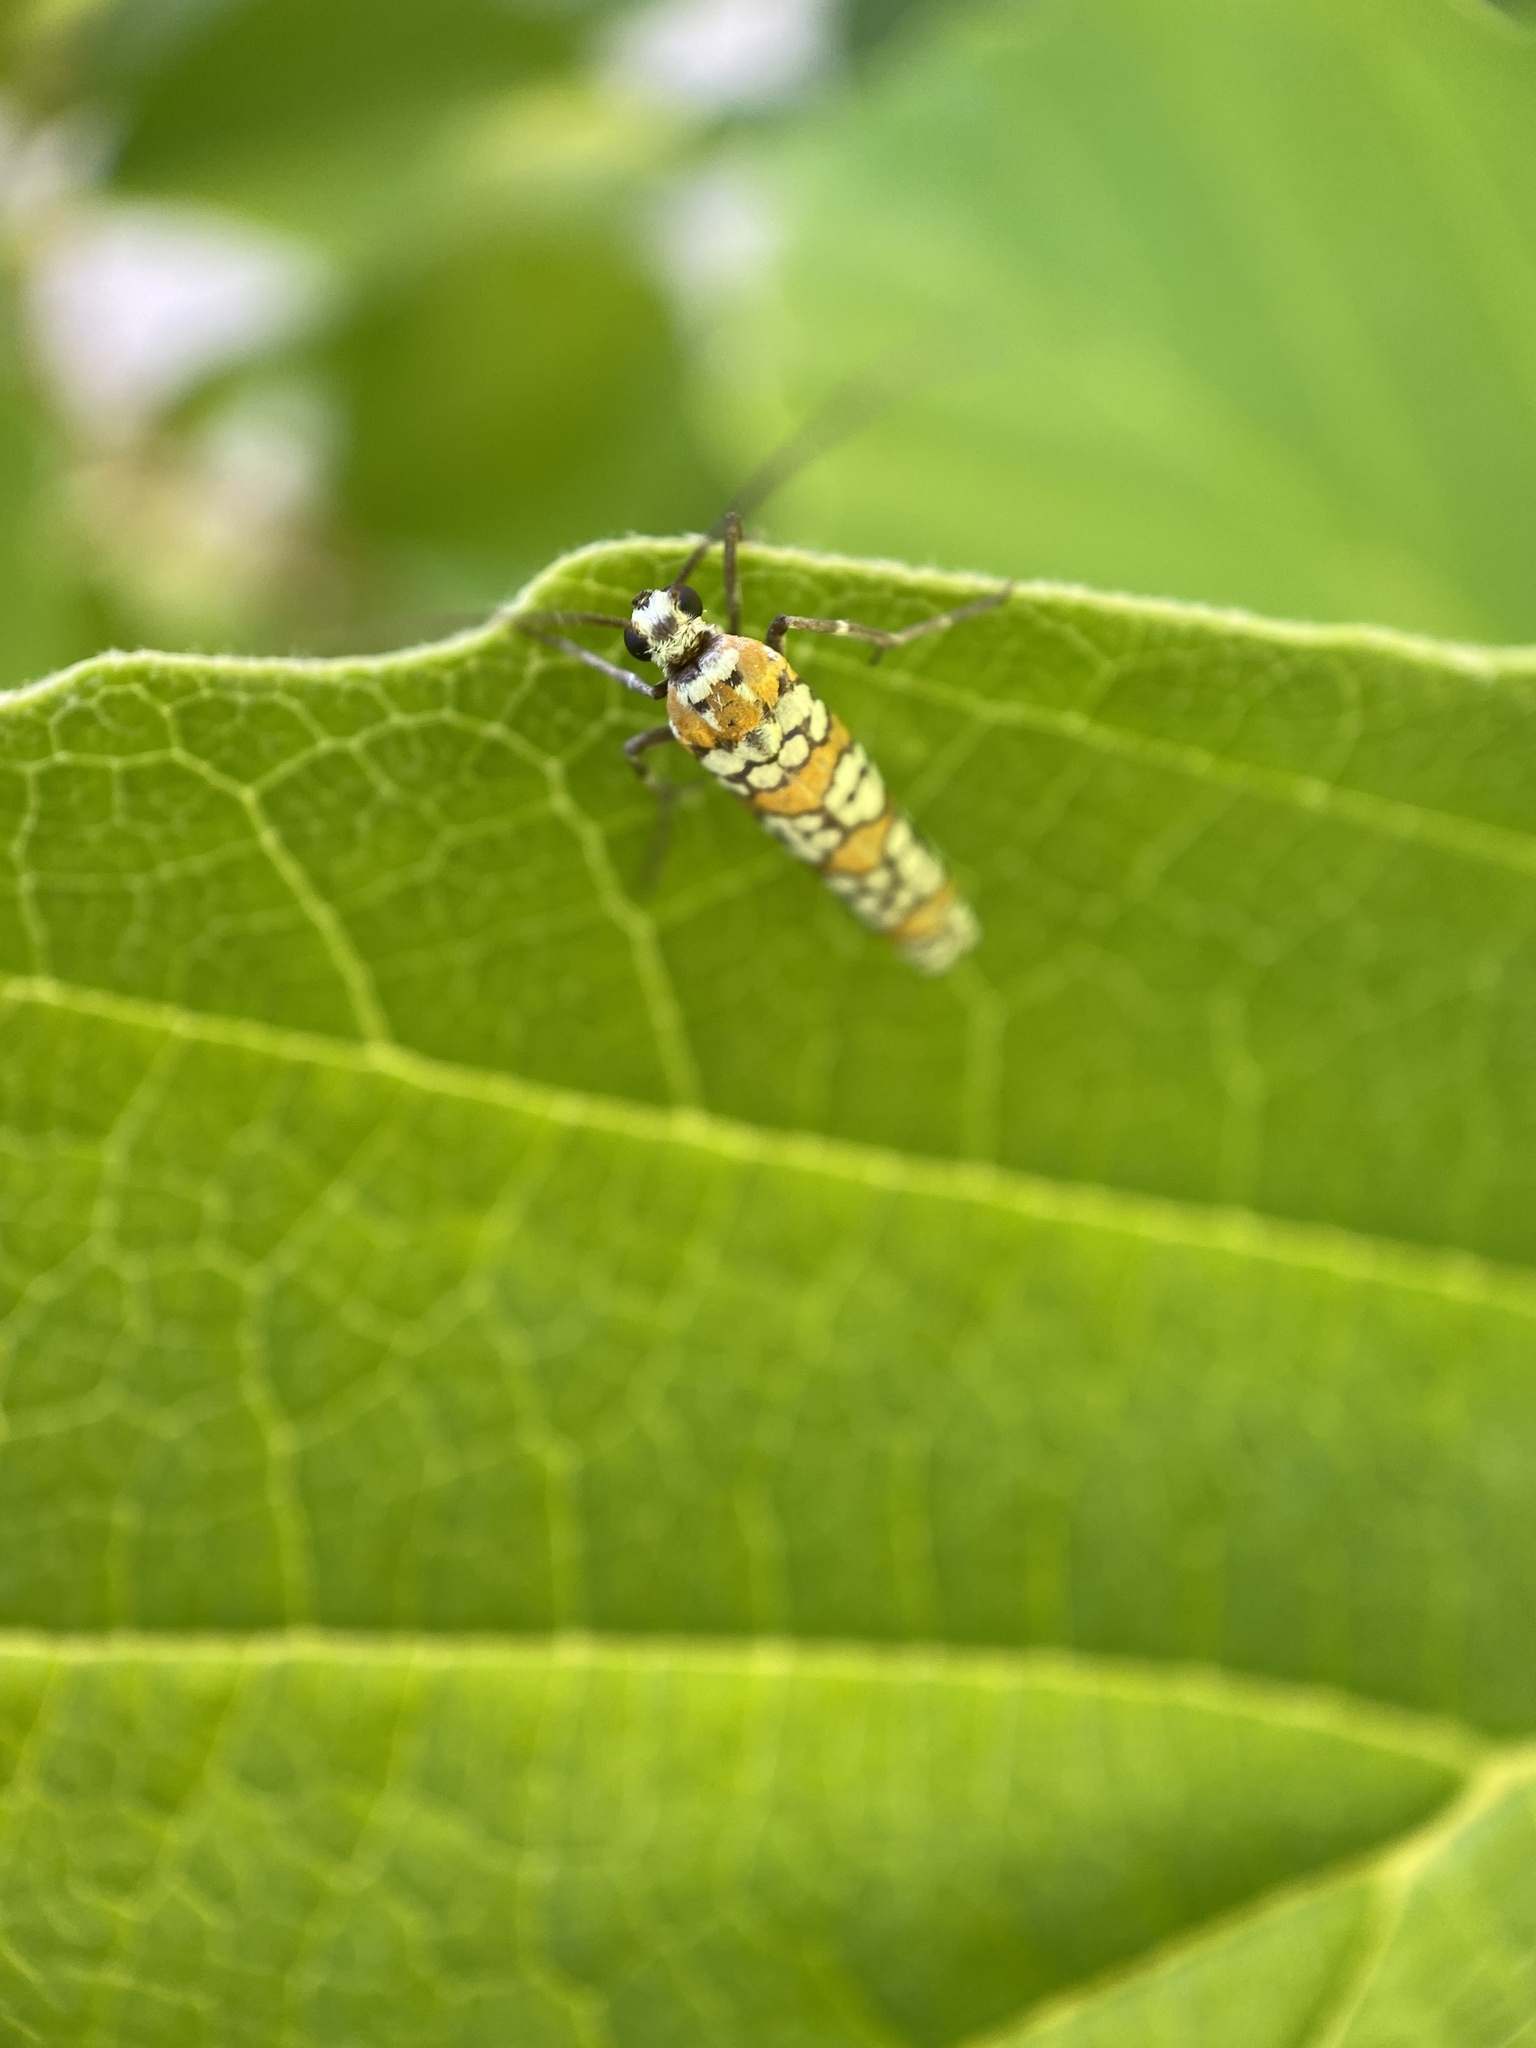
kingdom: Animalia
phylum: Arthropoda
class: Insecta
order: Lepidoptera
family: Attevidae
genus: Atteva
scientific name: Atteva punctella
